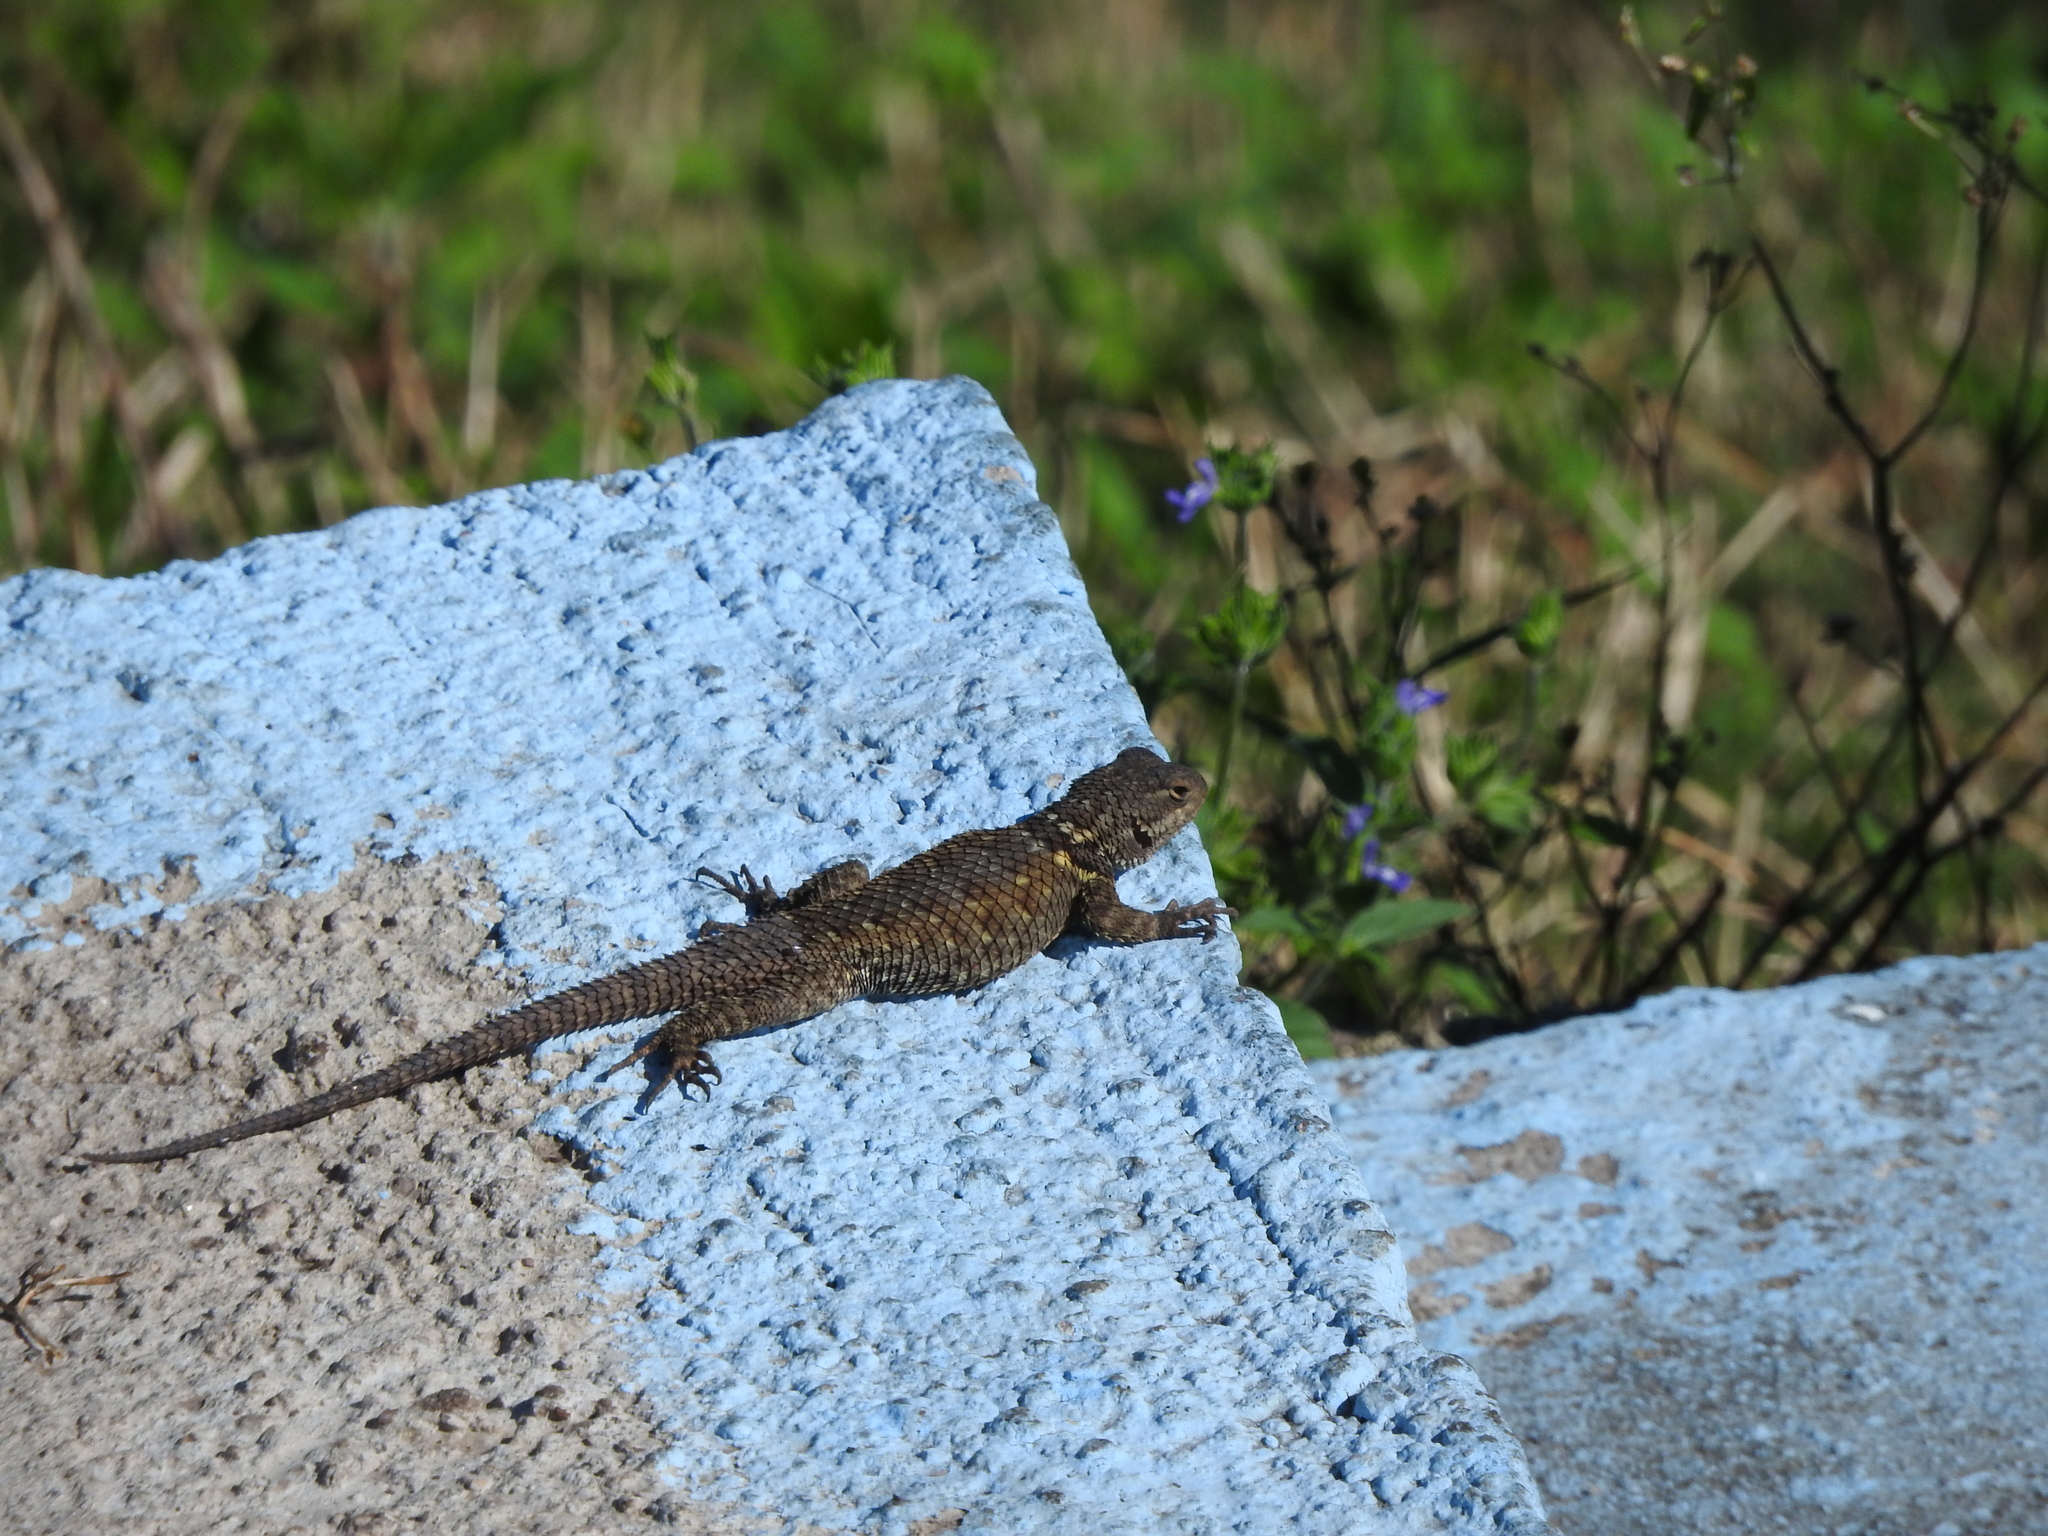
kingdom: Animalia
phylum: Chordata
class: Squamata
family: Phrynosomatidae
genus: Sceloporus
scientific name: Sceloporus torquatus
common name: Central plateau torquate lizard [melanogaster]
